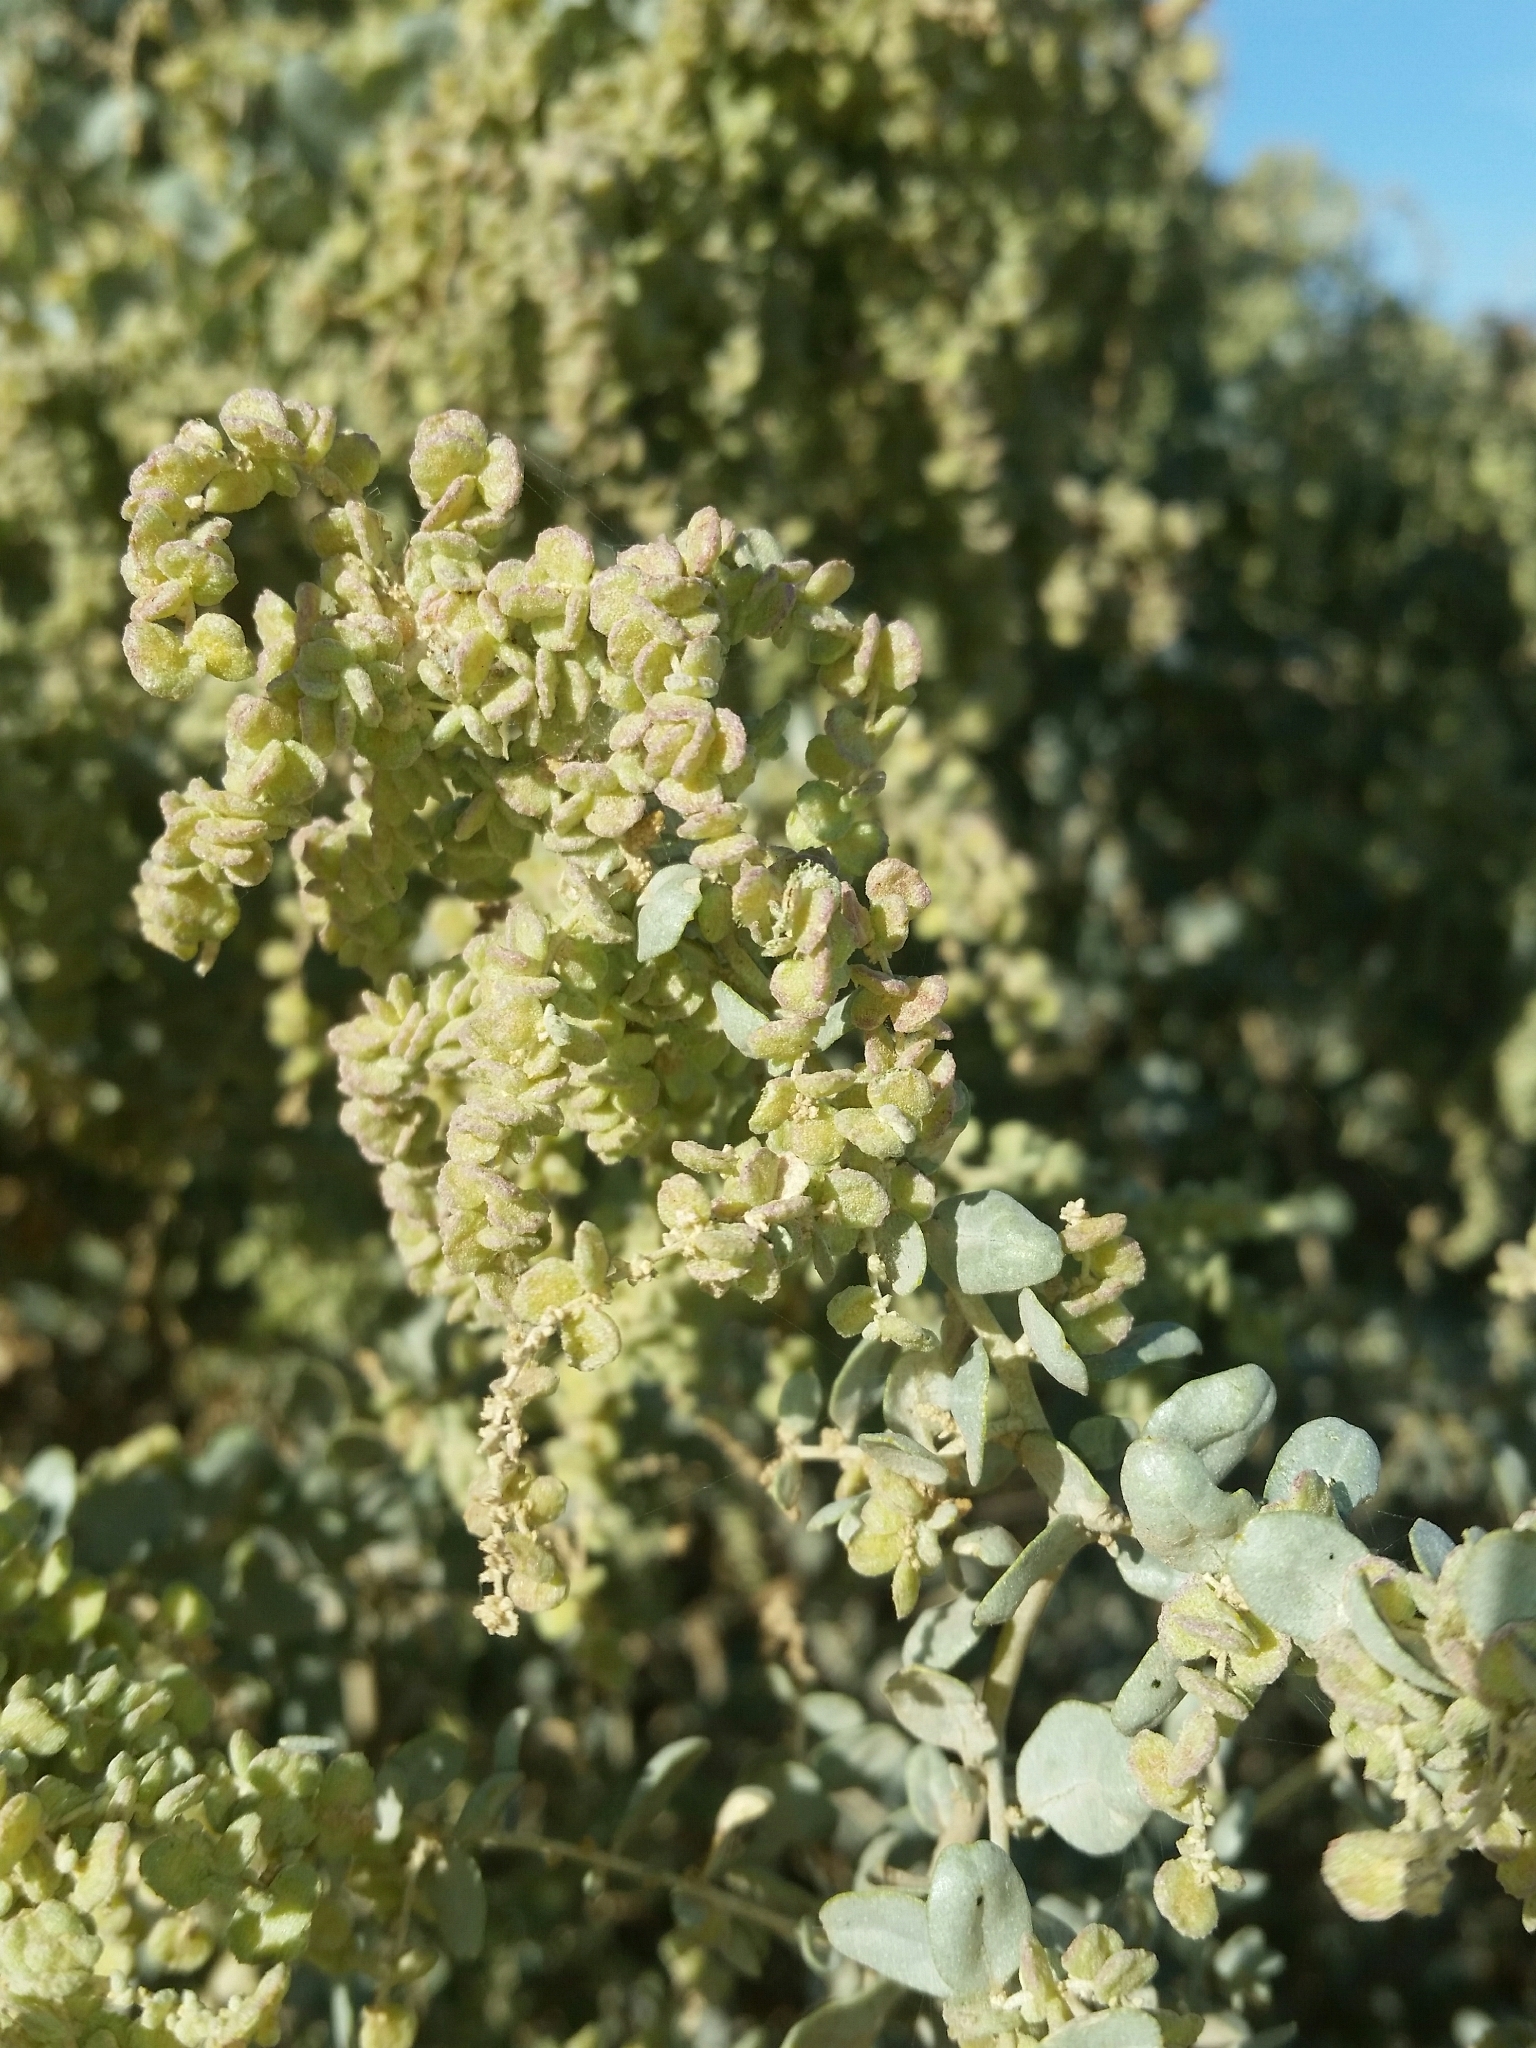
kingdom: Plantae
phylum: Tracheophyta
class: Magnoliopsida
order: Caryophyllales
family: Amaranthaceae
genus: Atriplex
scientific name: Atriplex lentiformis
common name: Big saltbush
